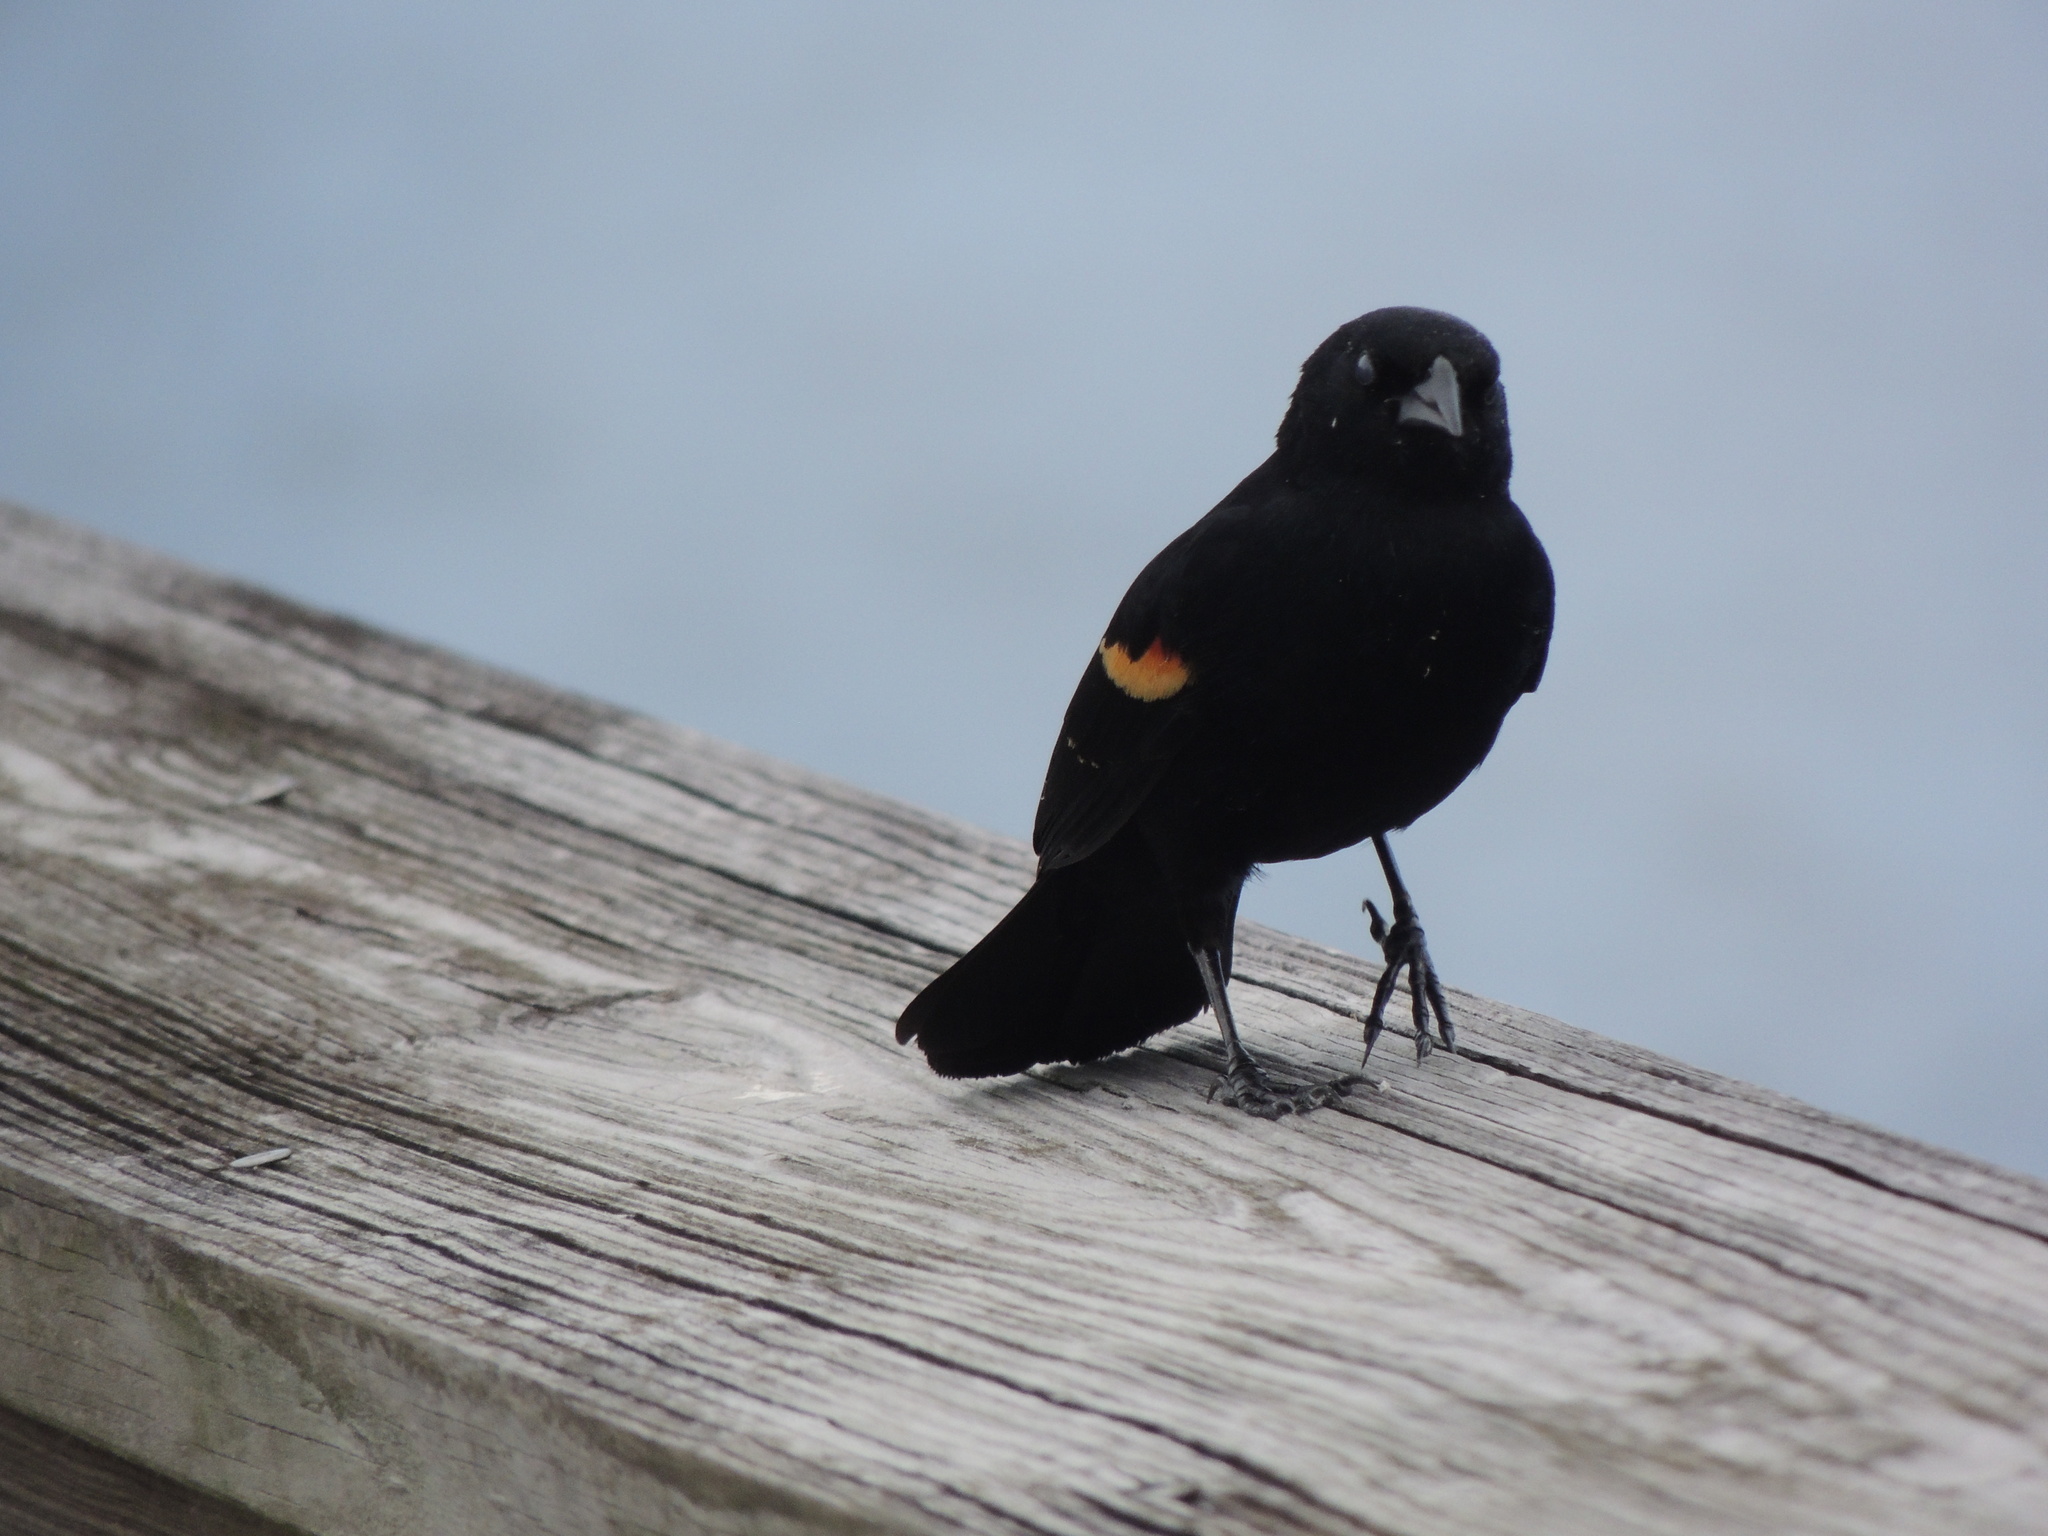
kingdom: Animalia
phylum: Chordata
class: Aves
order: Passeriformes
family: Icteridae
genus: Agelaius
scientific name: Agelaius phoeniceus
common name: Red-winged blackbird
